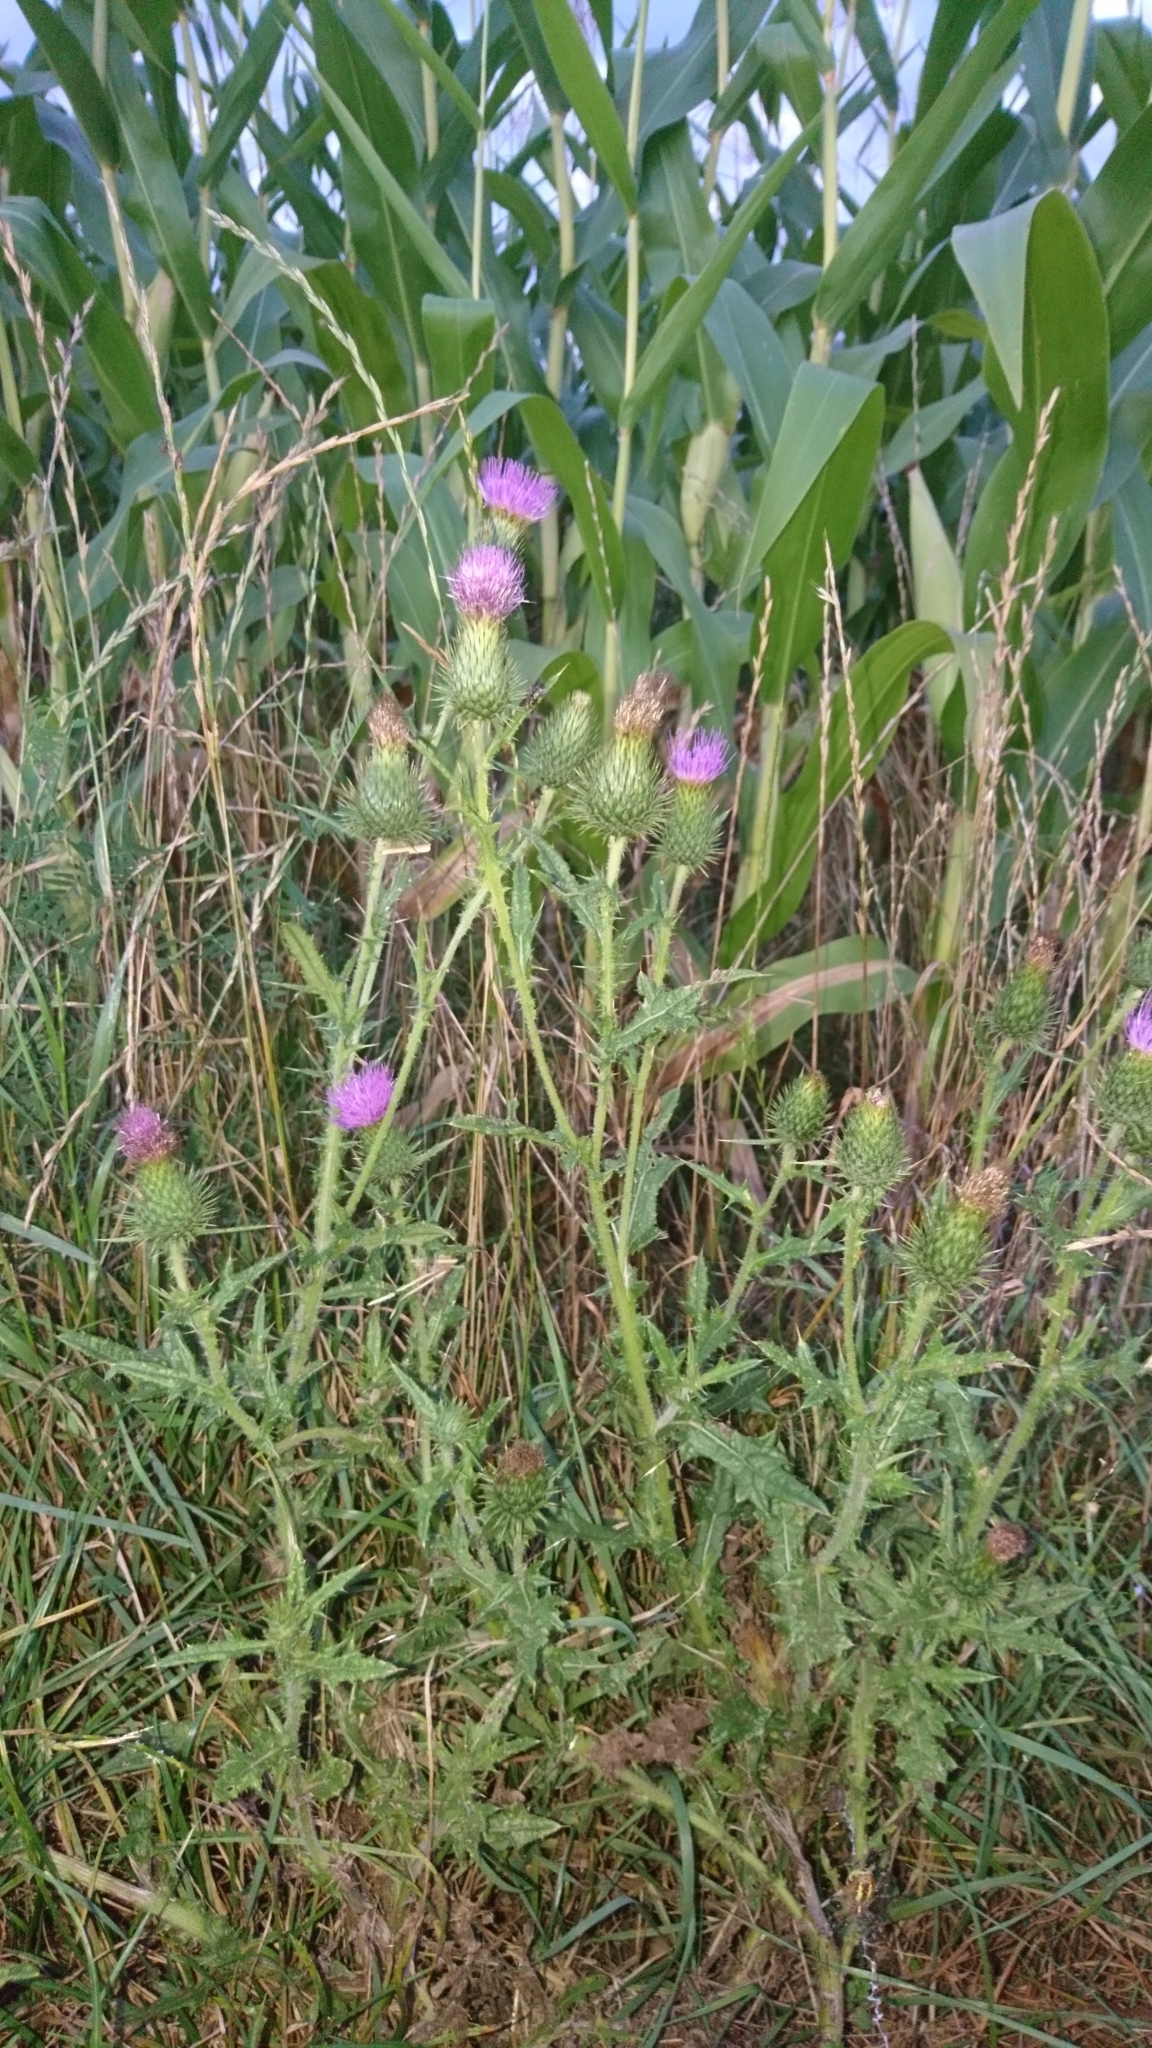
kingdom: Plantae
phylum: Tracheophyta
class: Magnoliopsida
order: Asterales
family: Asteraceae
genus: Cirsium
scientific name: Cirsium vulgare
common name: Bull thistle
